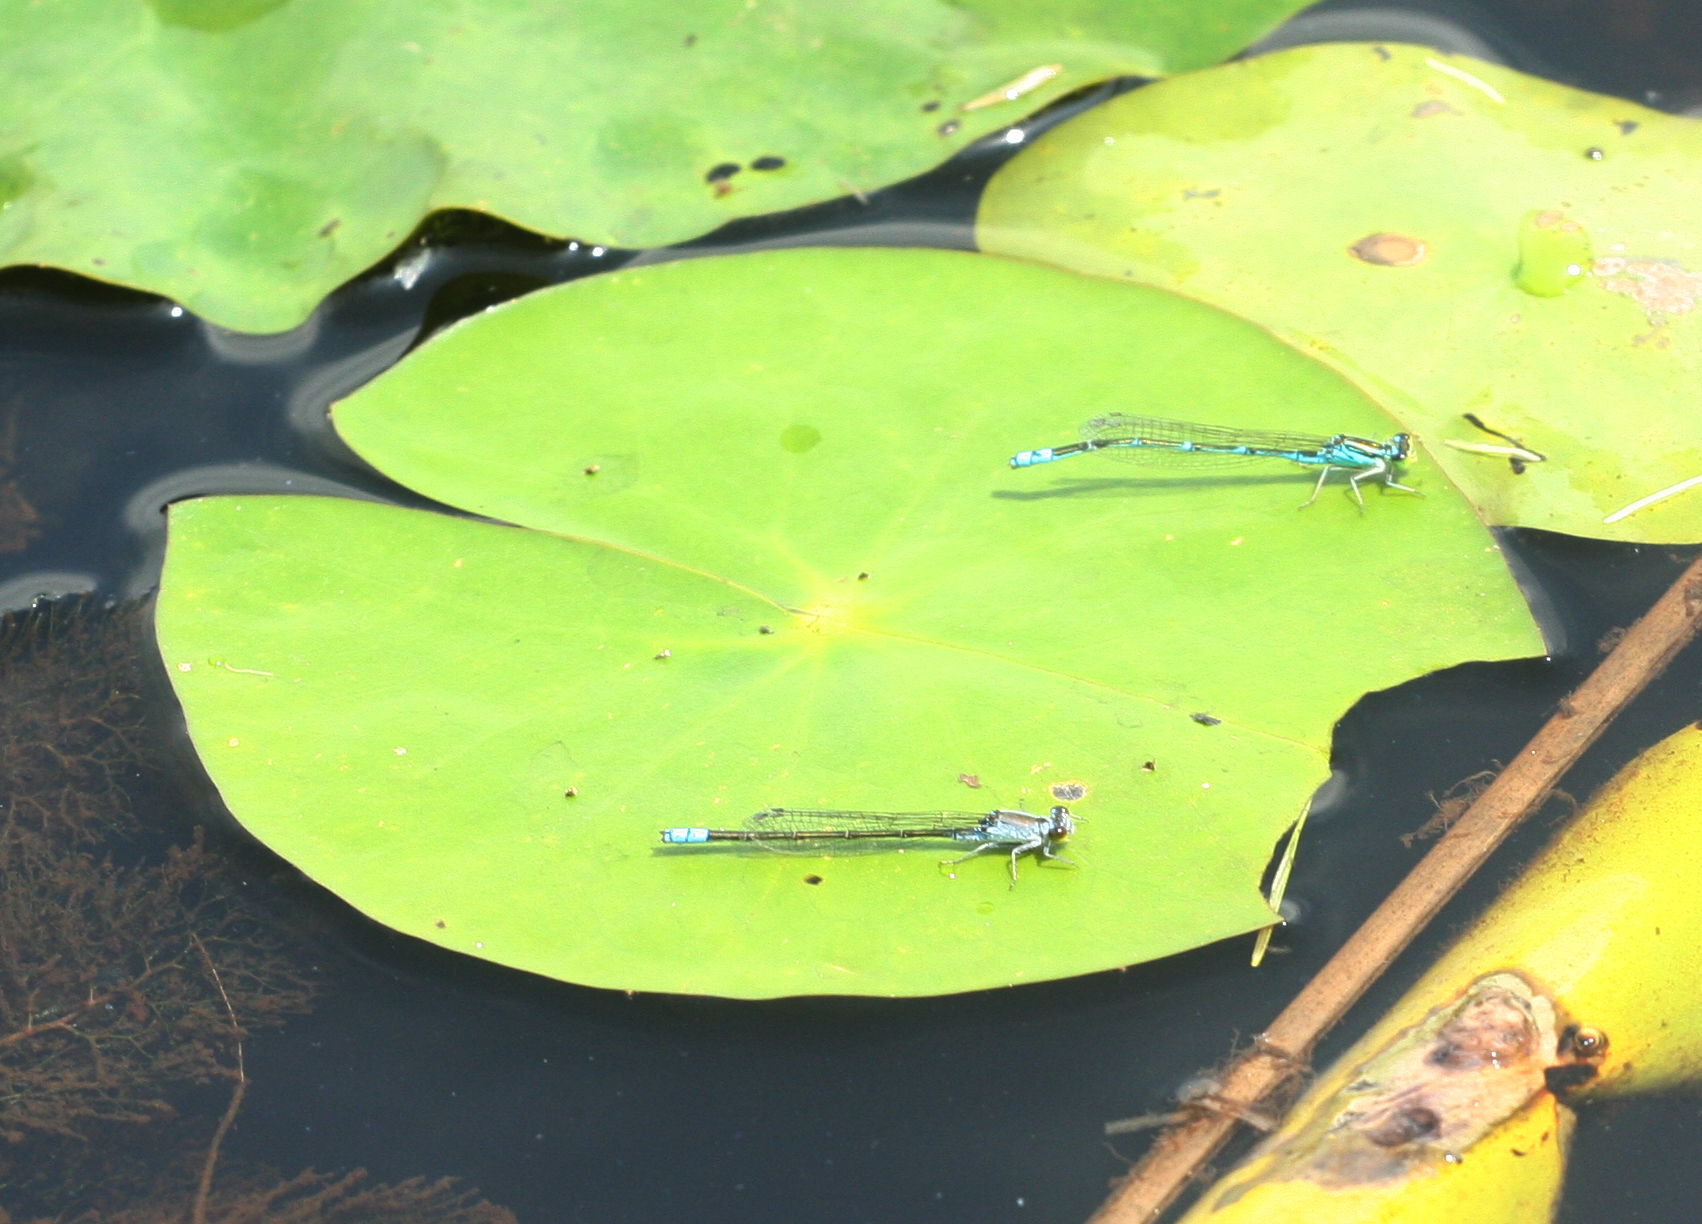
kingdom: Animalia
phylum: Arthropoda
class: Insecta
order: Odonata
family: Coenagrionidae
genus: Paracercion
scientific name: Paracercion v-nigrum
